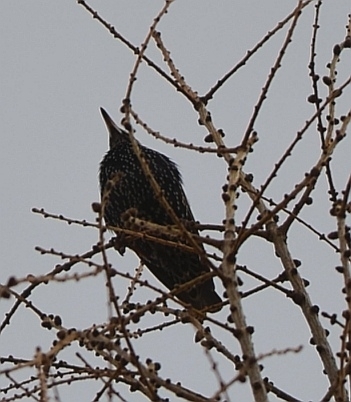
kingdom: Animalia
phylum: Chordata
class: Aves
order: Passeriformes
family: Sturnidae
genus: Sturnus
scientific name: Sturnus vulgaris
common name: Common starling
